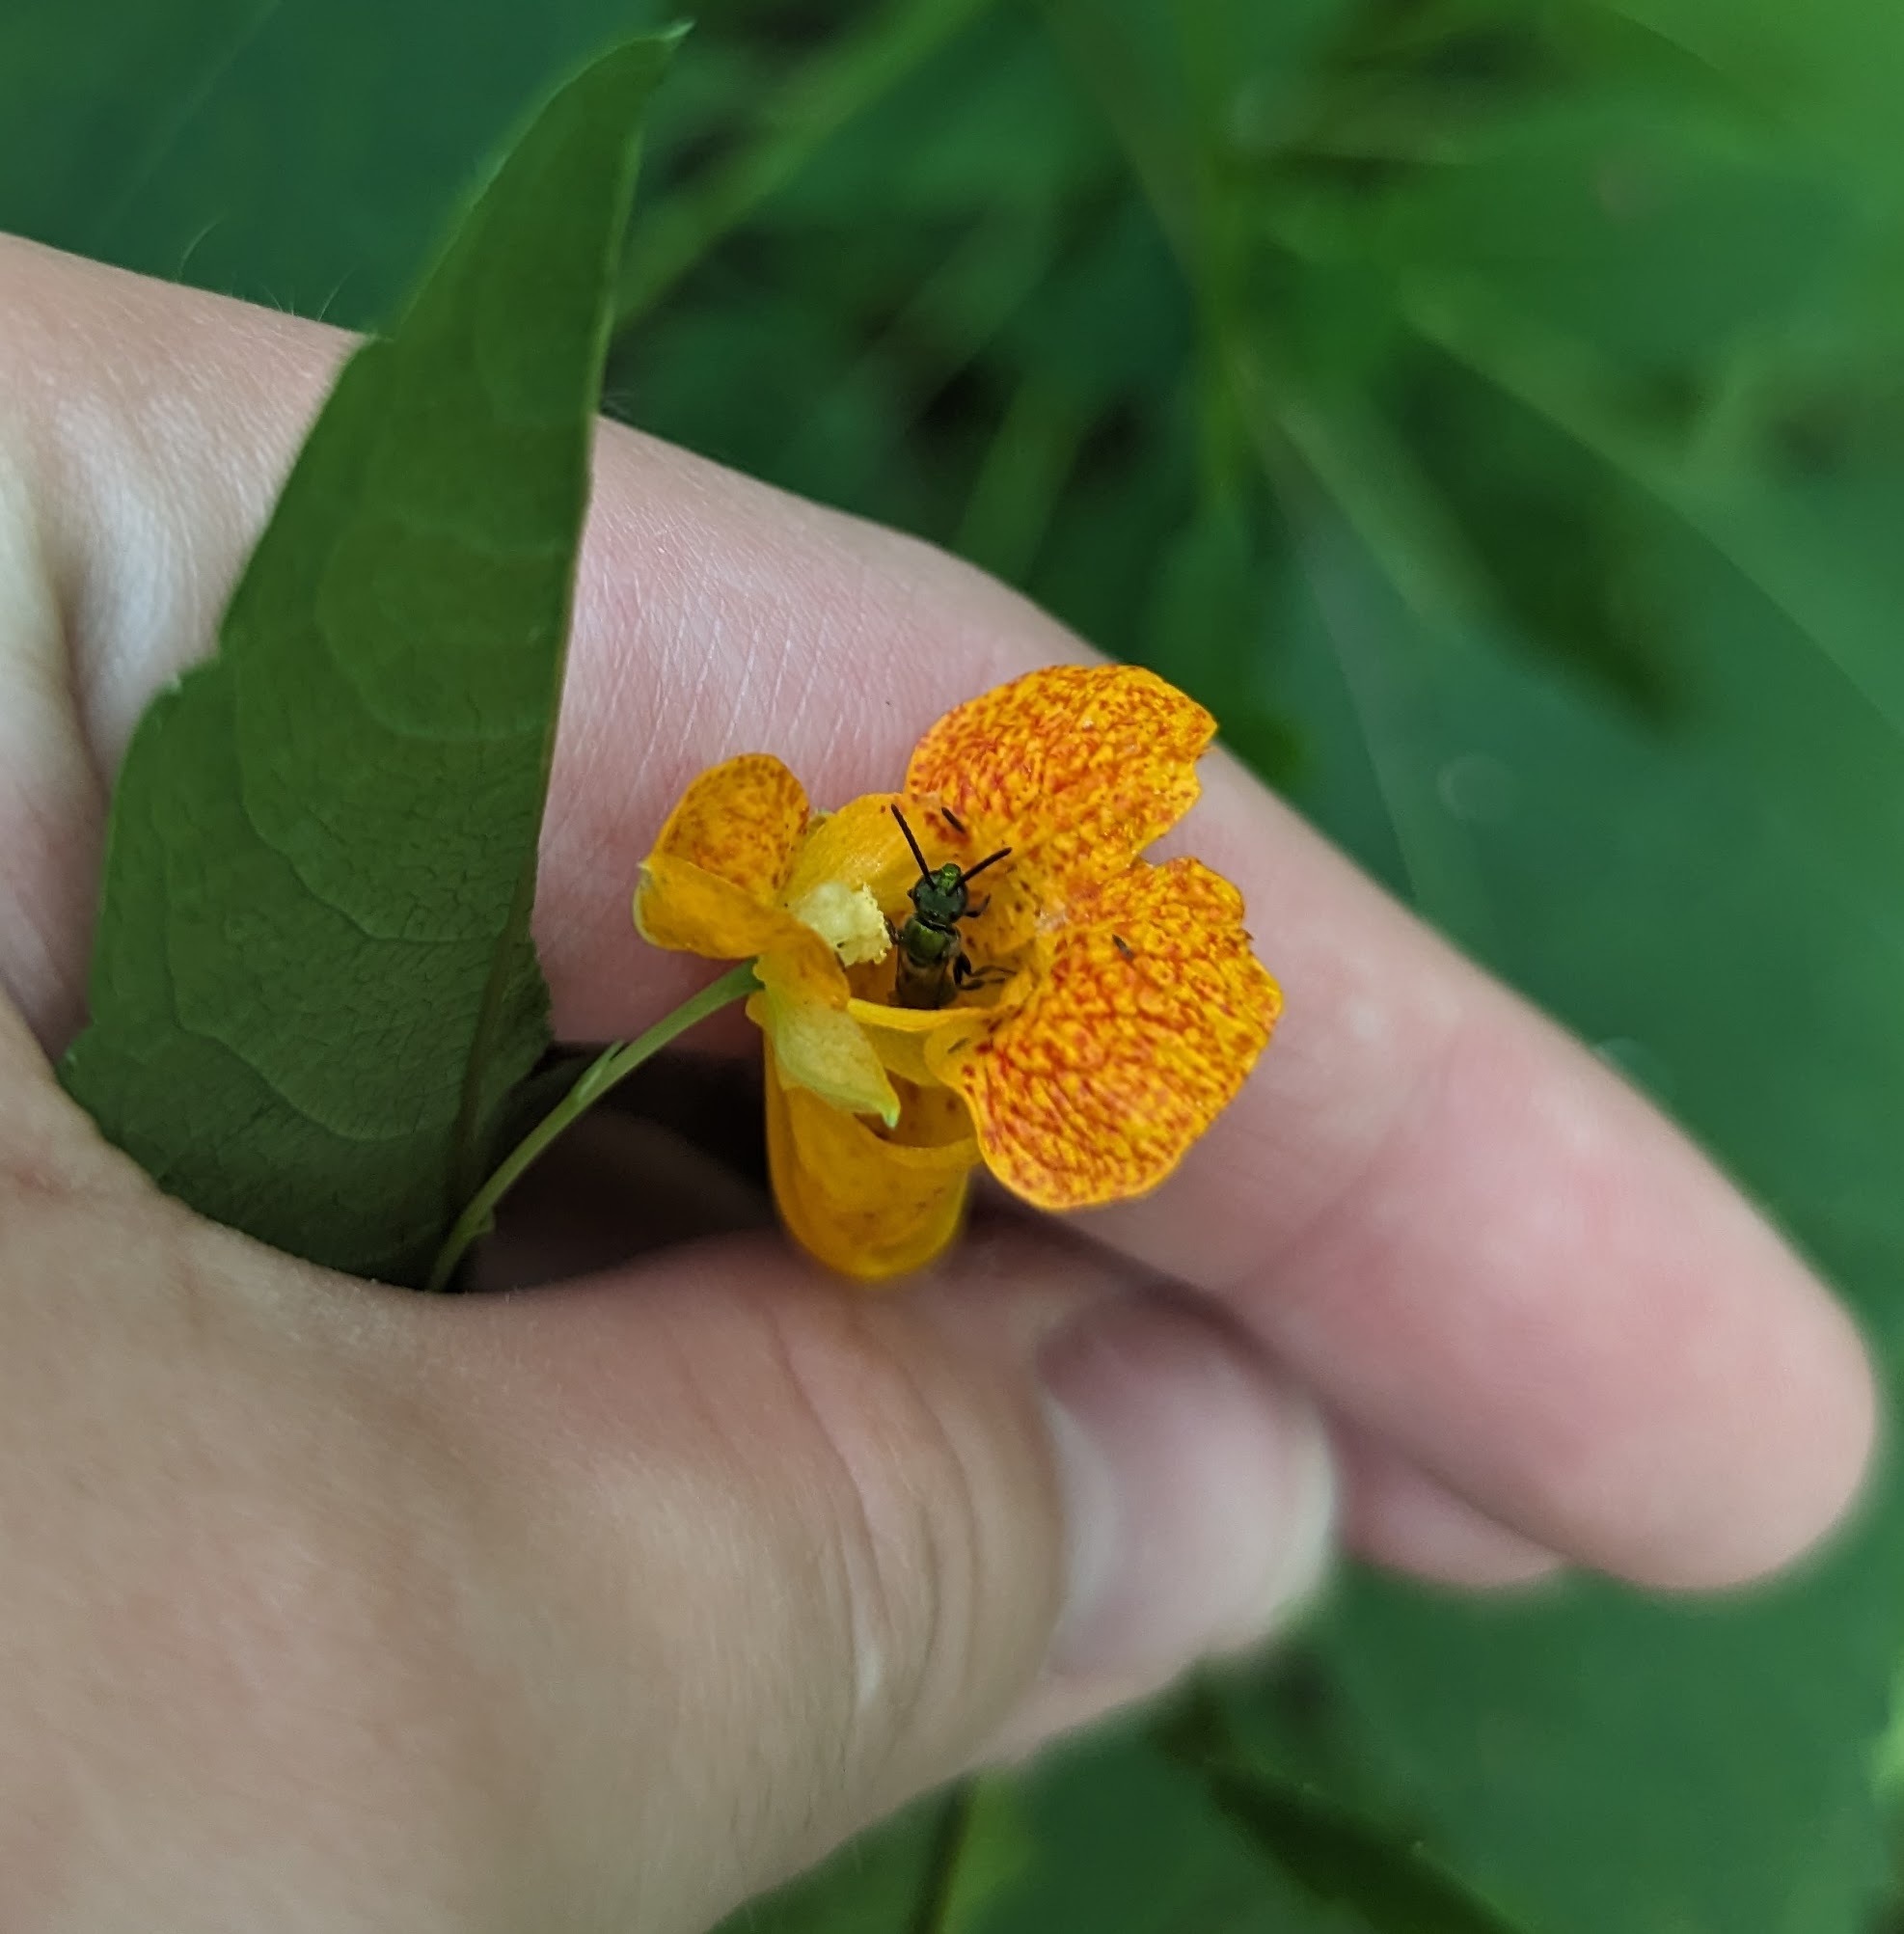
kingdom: Plantae
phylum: Tracheophyta
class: Magnoliopsida
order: Ericales
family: Balsaminaceae
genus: Impatiens
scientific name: Impatiens capensis
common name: Orange balsam
